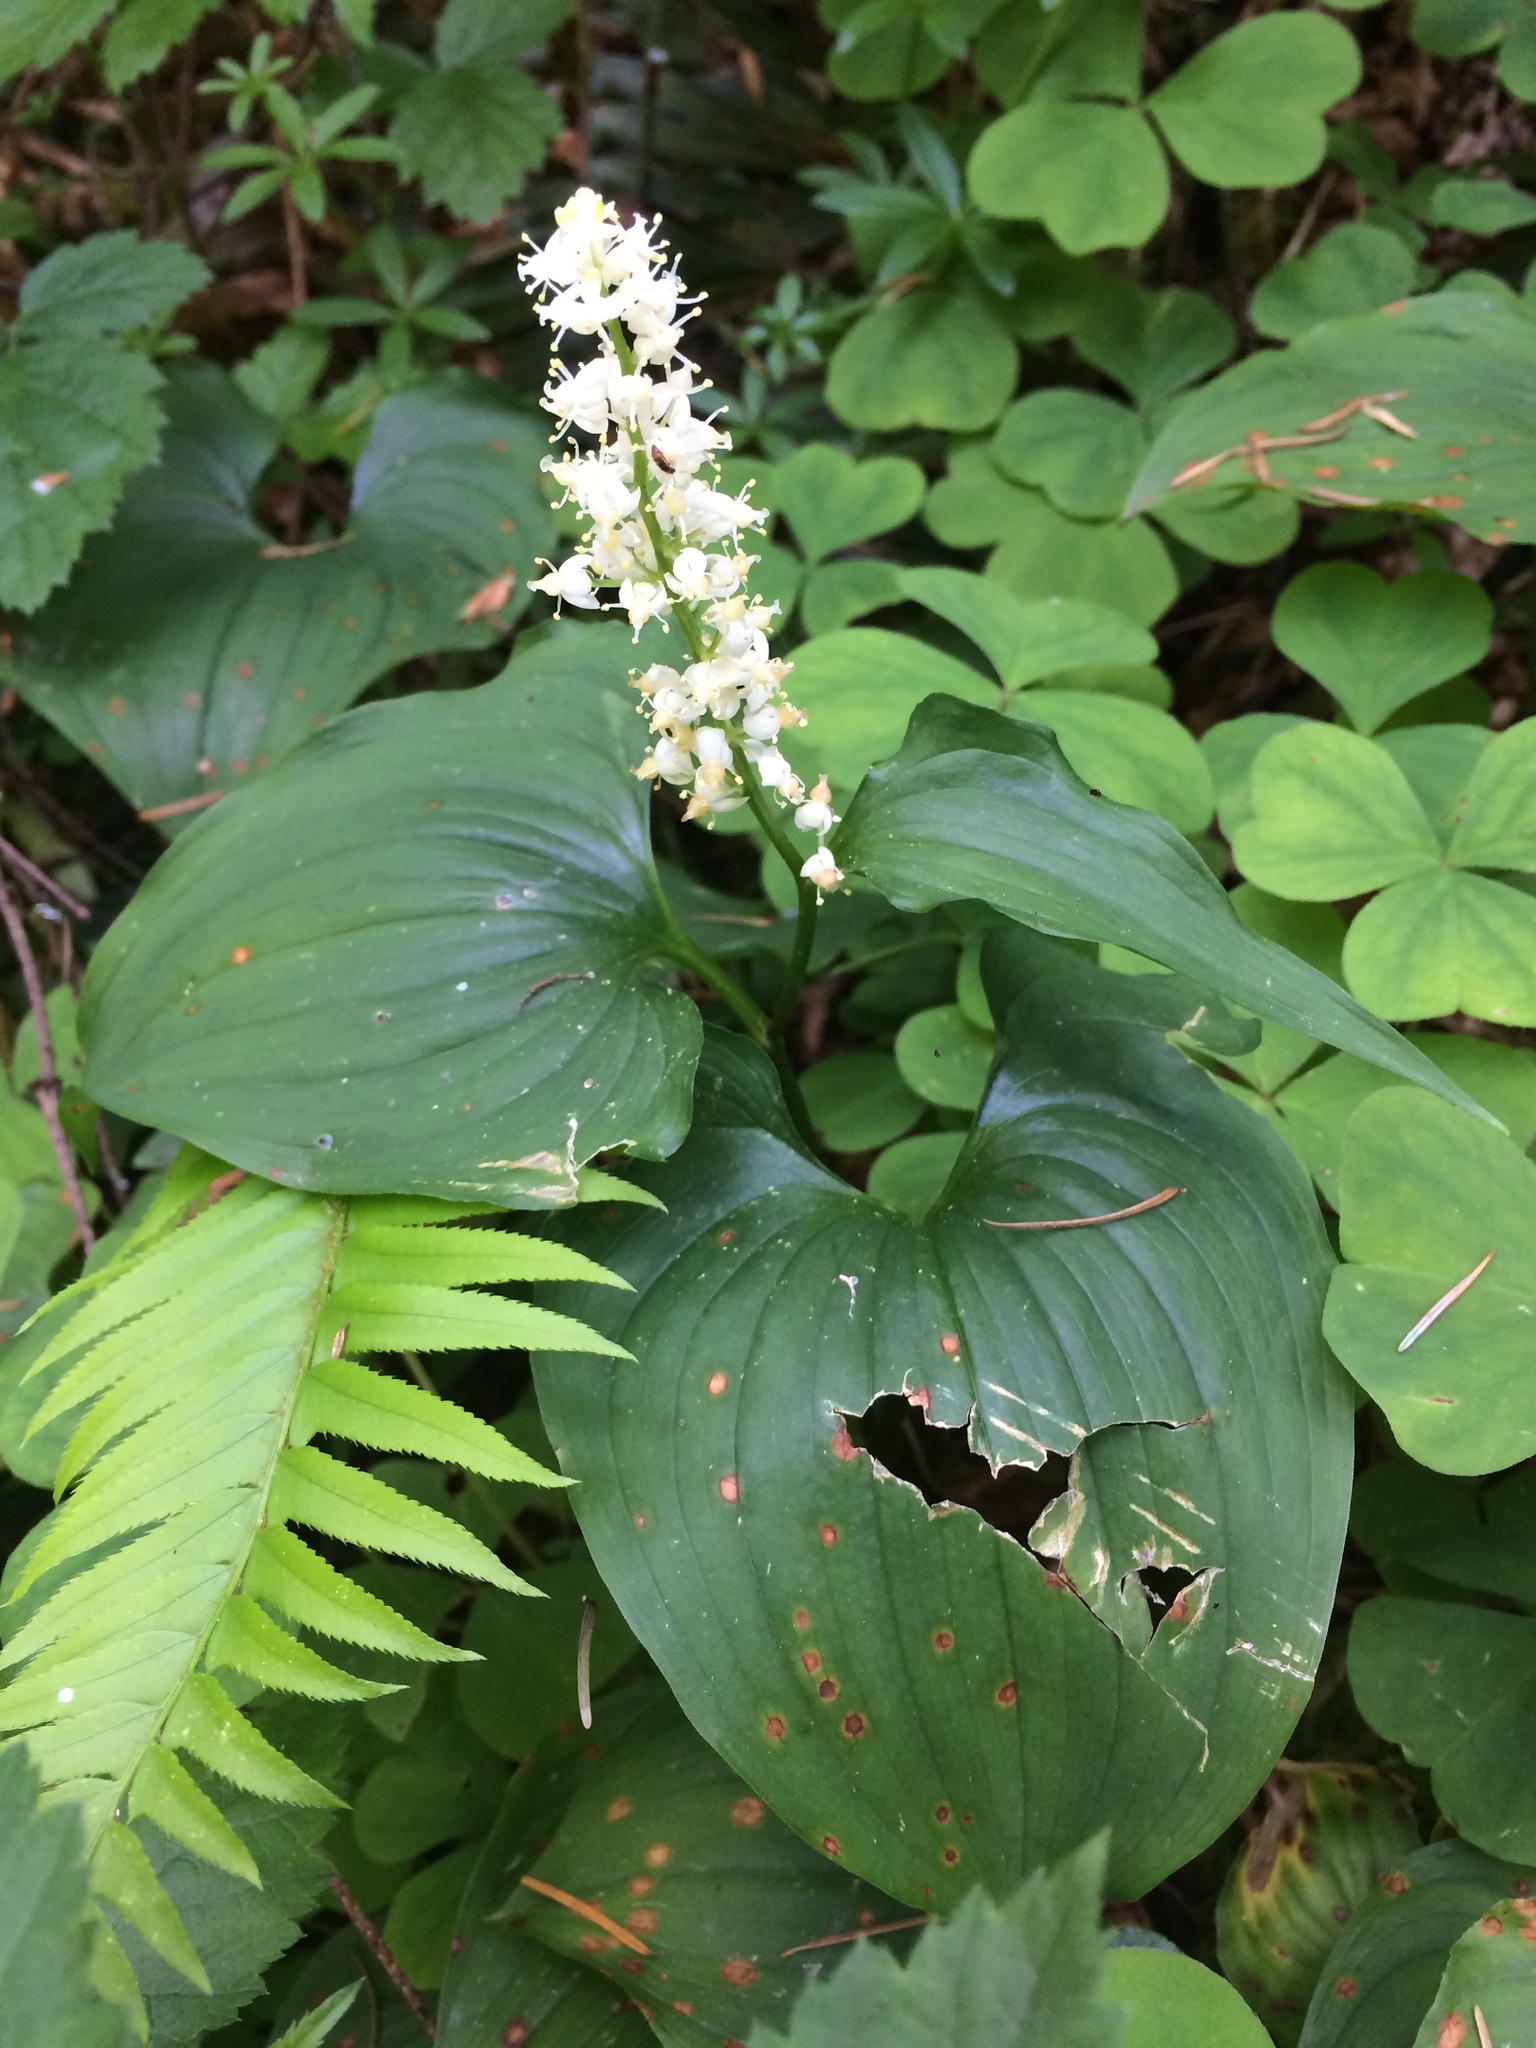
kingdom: Plantae
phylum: Tracheophyta
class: Liliopsida
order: Asparagales
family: Asparagaceae
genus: Maianthemum
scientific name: Maianthemum dilatatum
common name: False lily-of-the-valley
